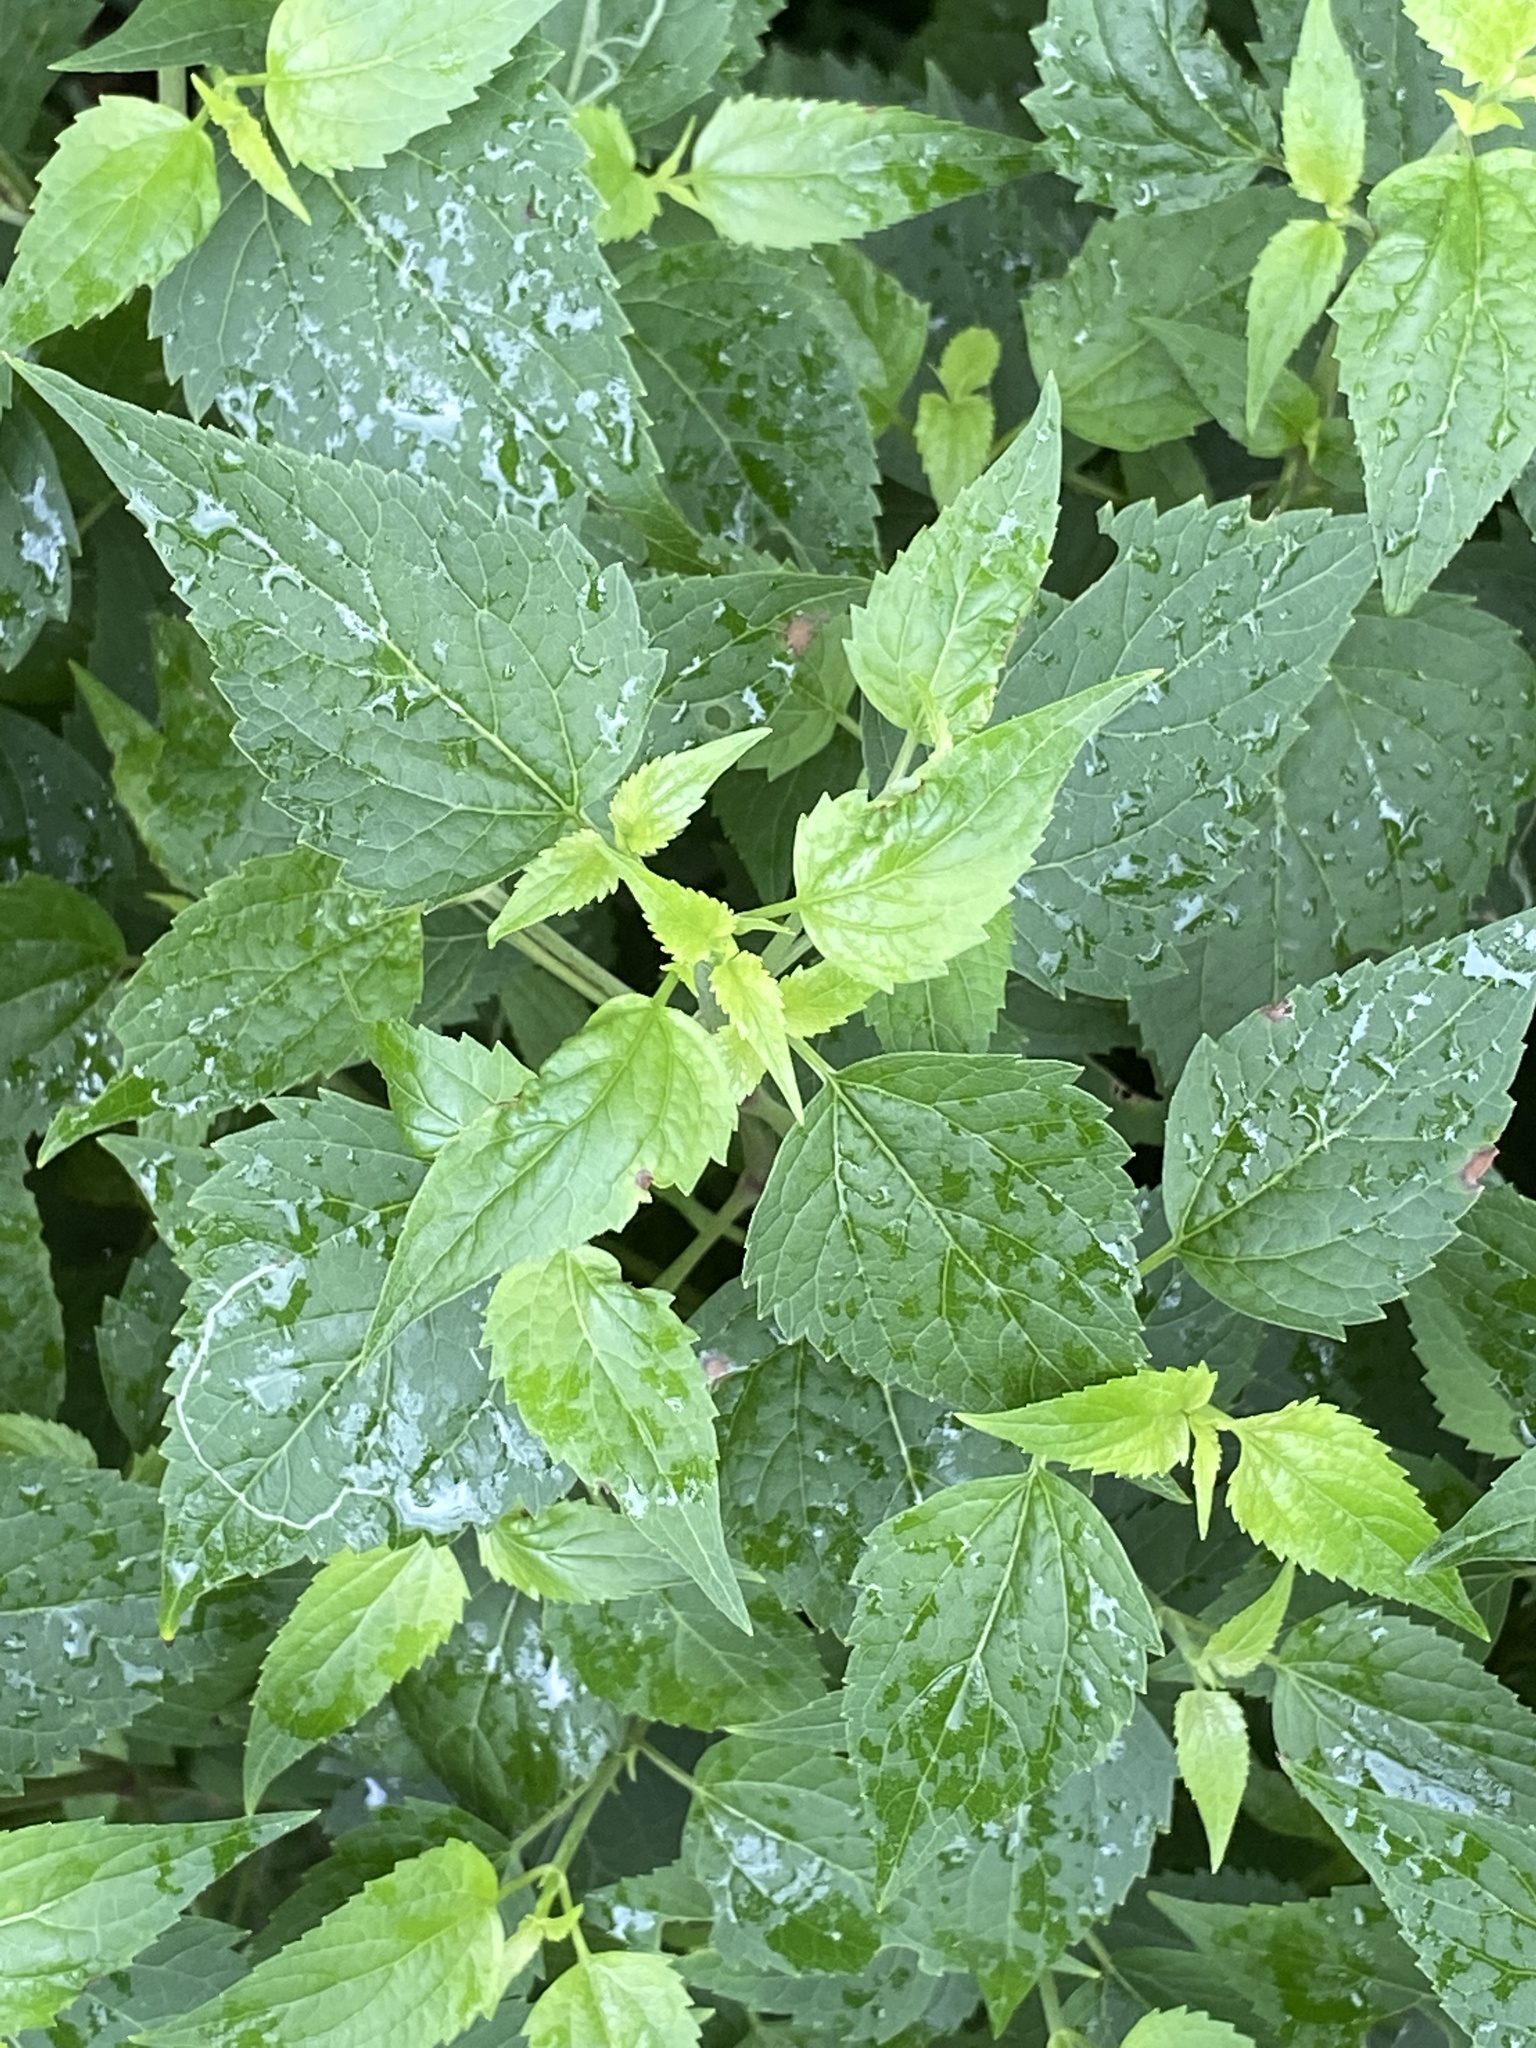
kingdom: Plantae
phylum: Tracheophyta
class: Magnoliopsida
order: Asterales
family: Asteraceae
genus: Ageratina
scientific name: Ageratina altissima
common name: White snakeroot
